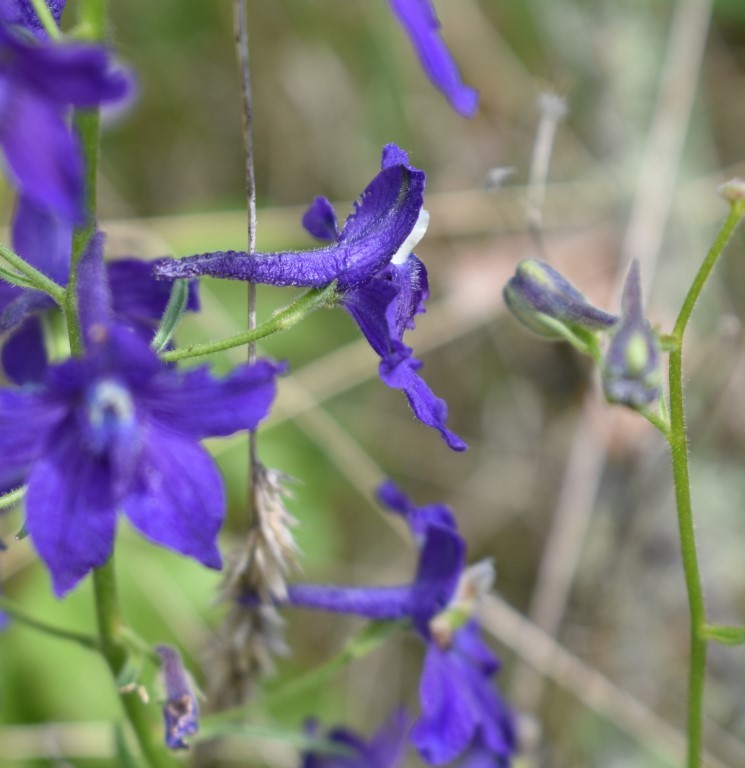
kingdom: Plantae
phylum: Tracheophyta
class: Magnoliopsida
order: Ranunculales
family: Ranunculaceae
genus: Delphinium
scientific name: Delphinium menziesii
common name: Menzies's larkspur
